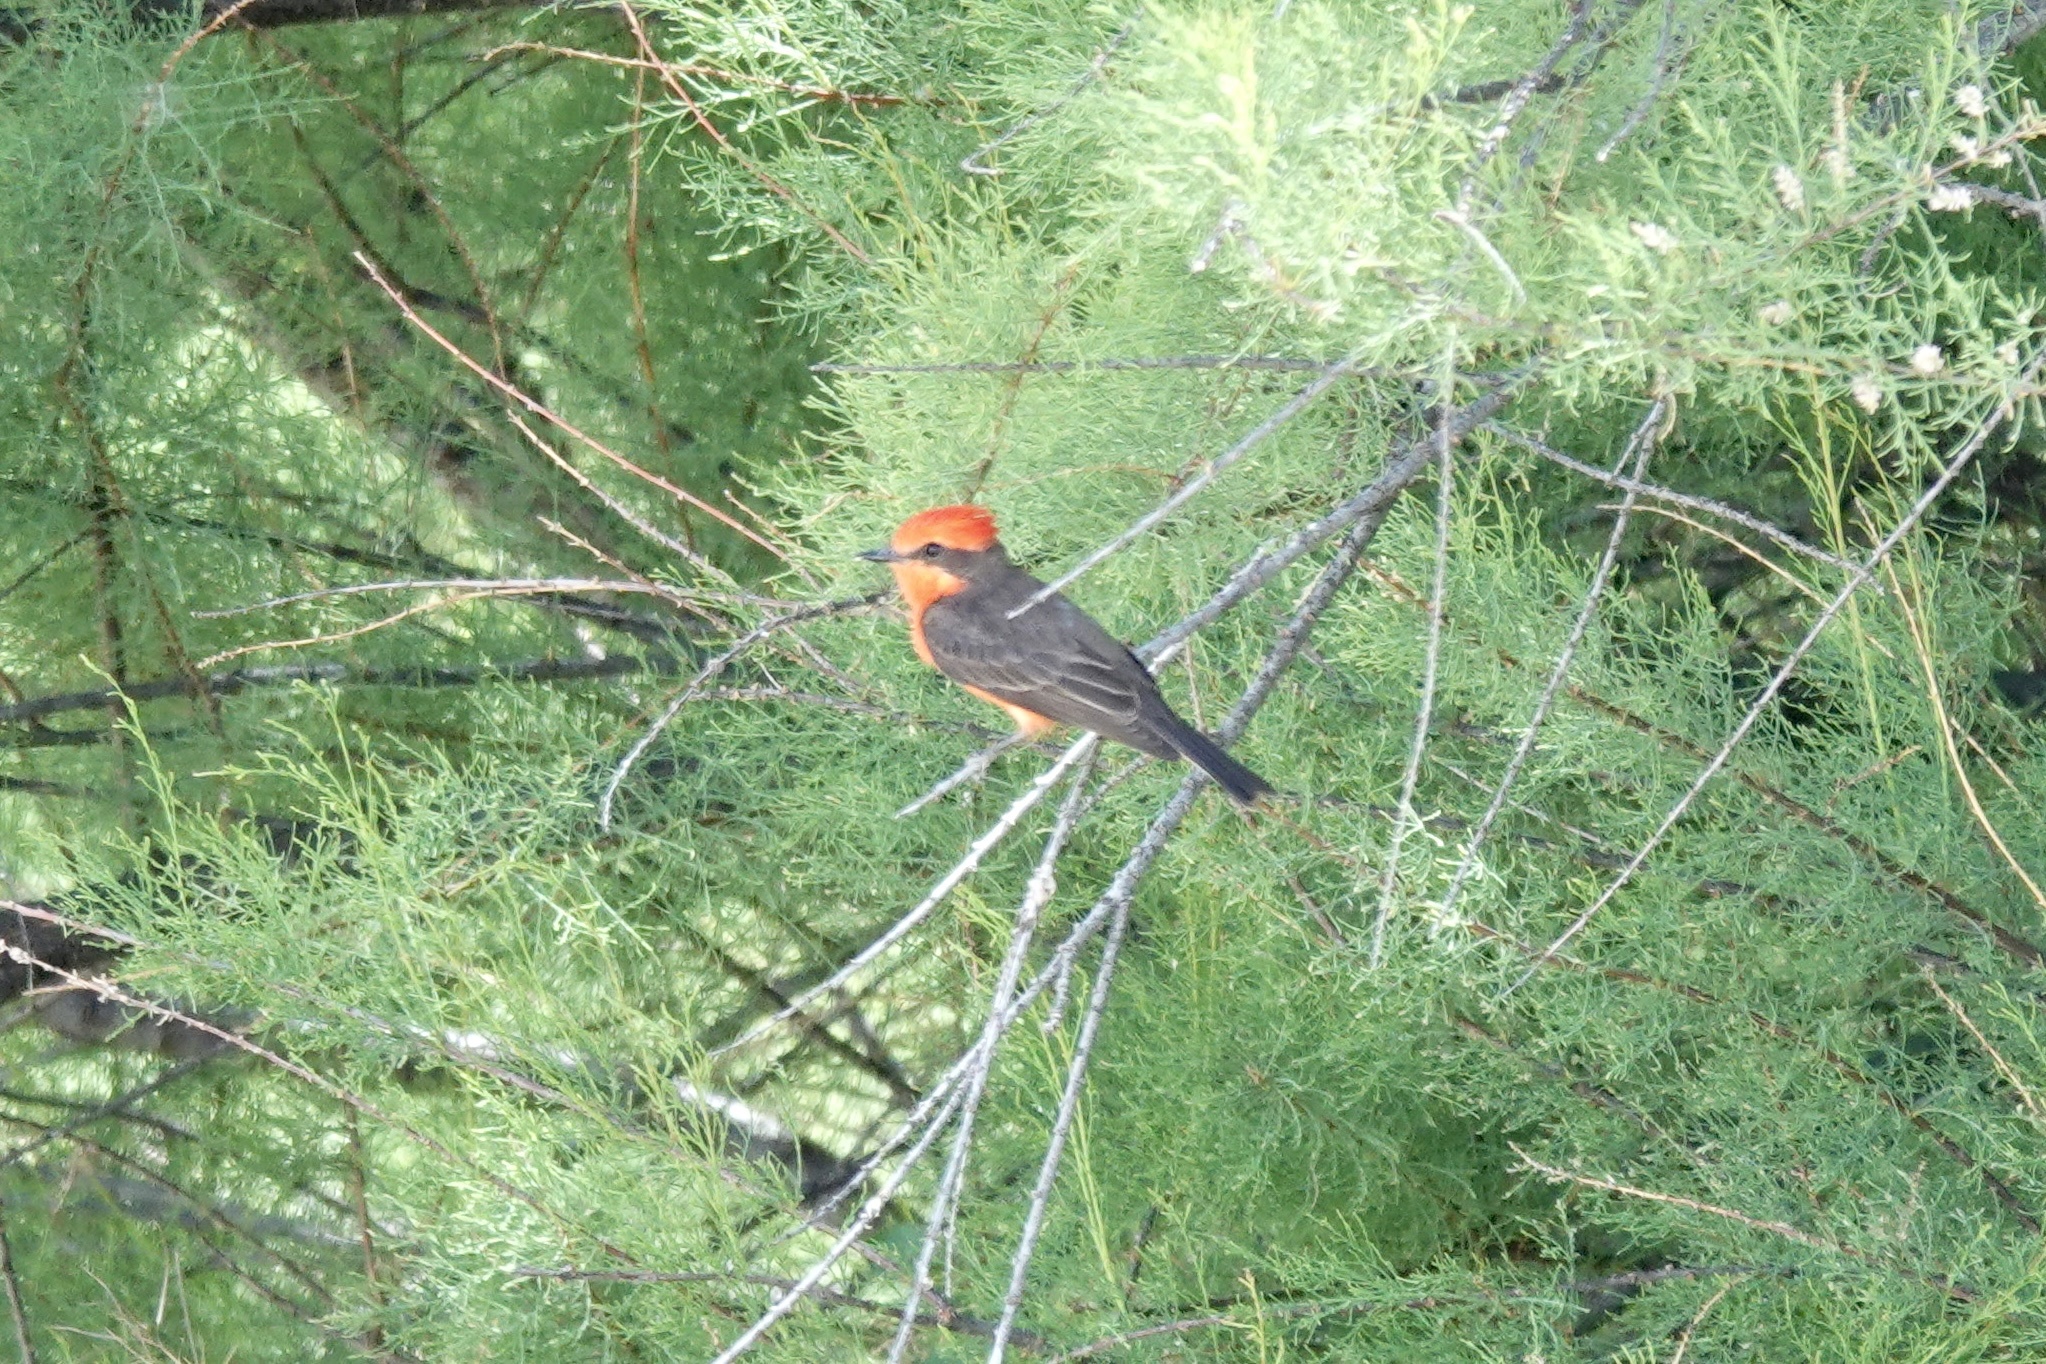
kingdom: Animalia
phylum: Chordata
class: Aves
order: Passeriformes
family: Tyrannidae
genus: Pyrocephalus
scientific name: Pyrocephalus rubinus
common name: Vermilion flycatcher
